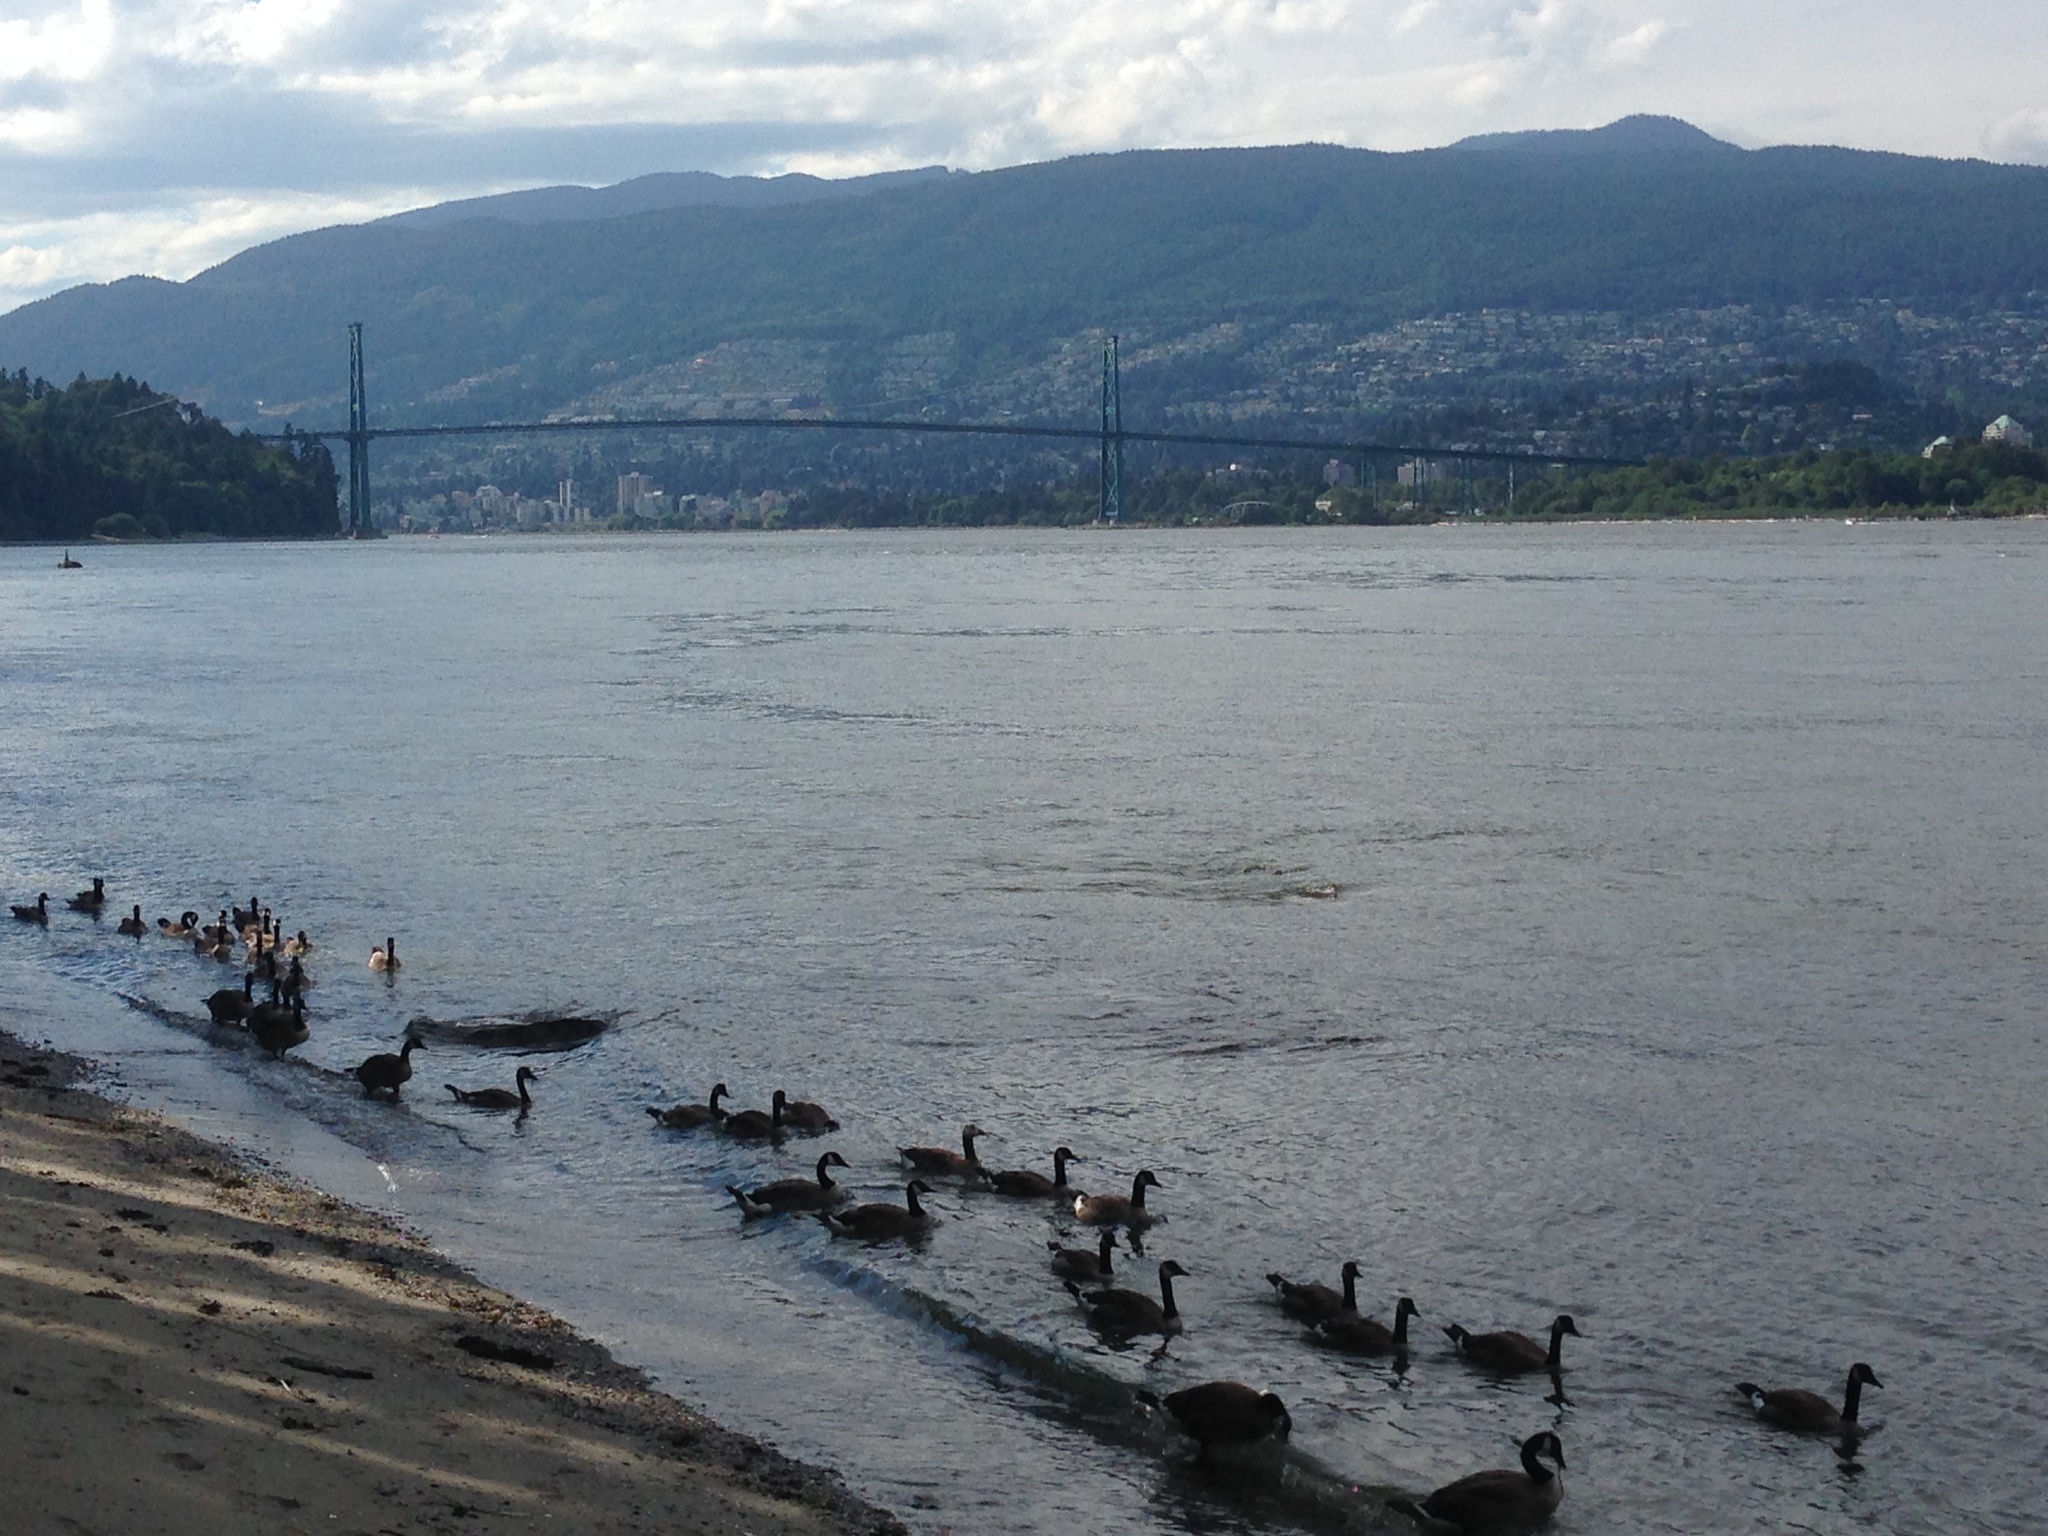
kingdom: Animalia
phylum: Chordata
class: Aves
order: Anseriformes
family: Anatidae
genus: Branta
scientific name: Branta canadensis
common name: Canada goose
